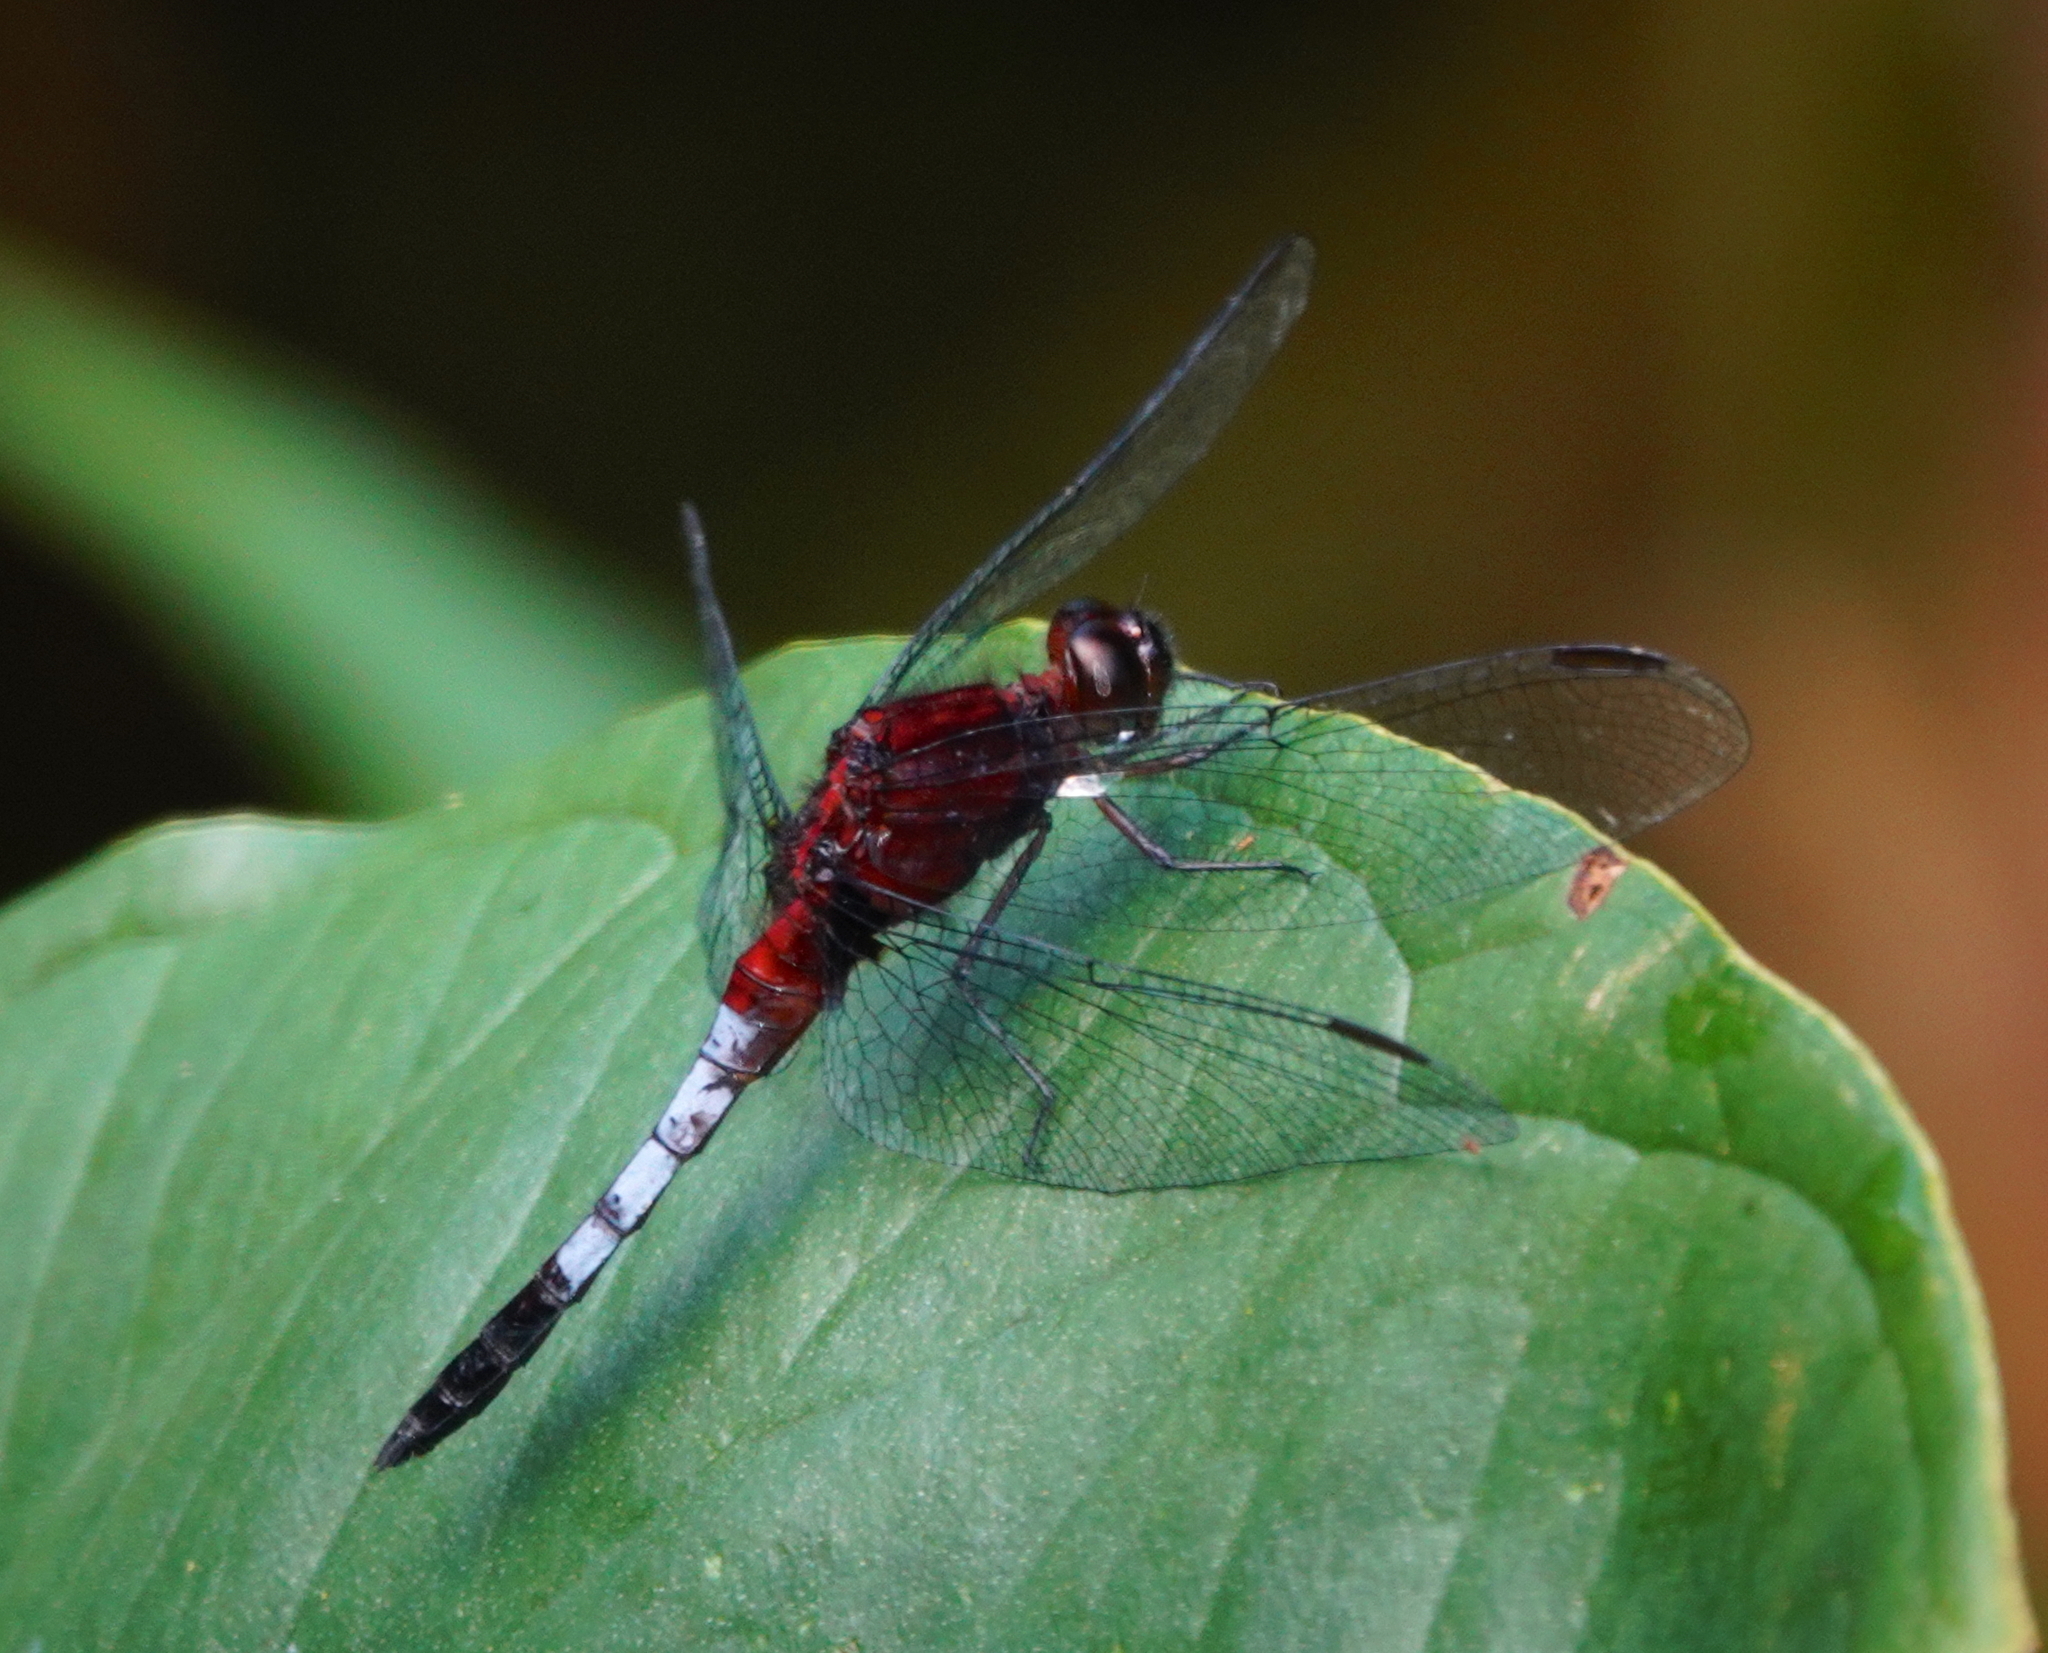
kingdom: Animalia
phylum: Arthropoda
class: Insecta
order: Odonata
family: Libellulidae
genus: Erythrodiplax
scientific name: Erythrodiplax abjecta
